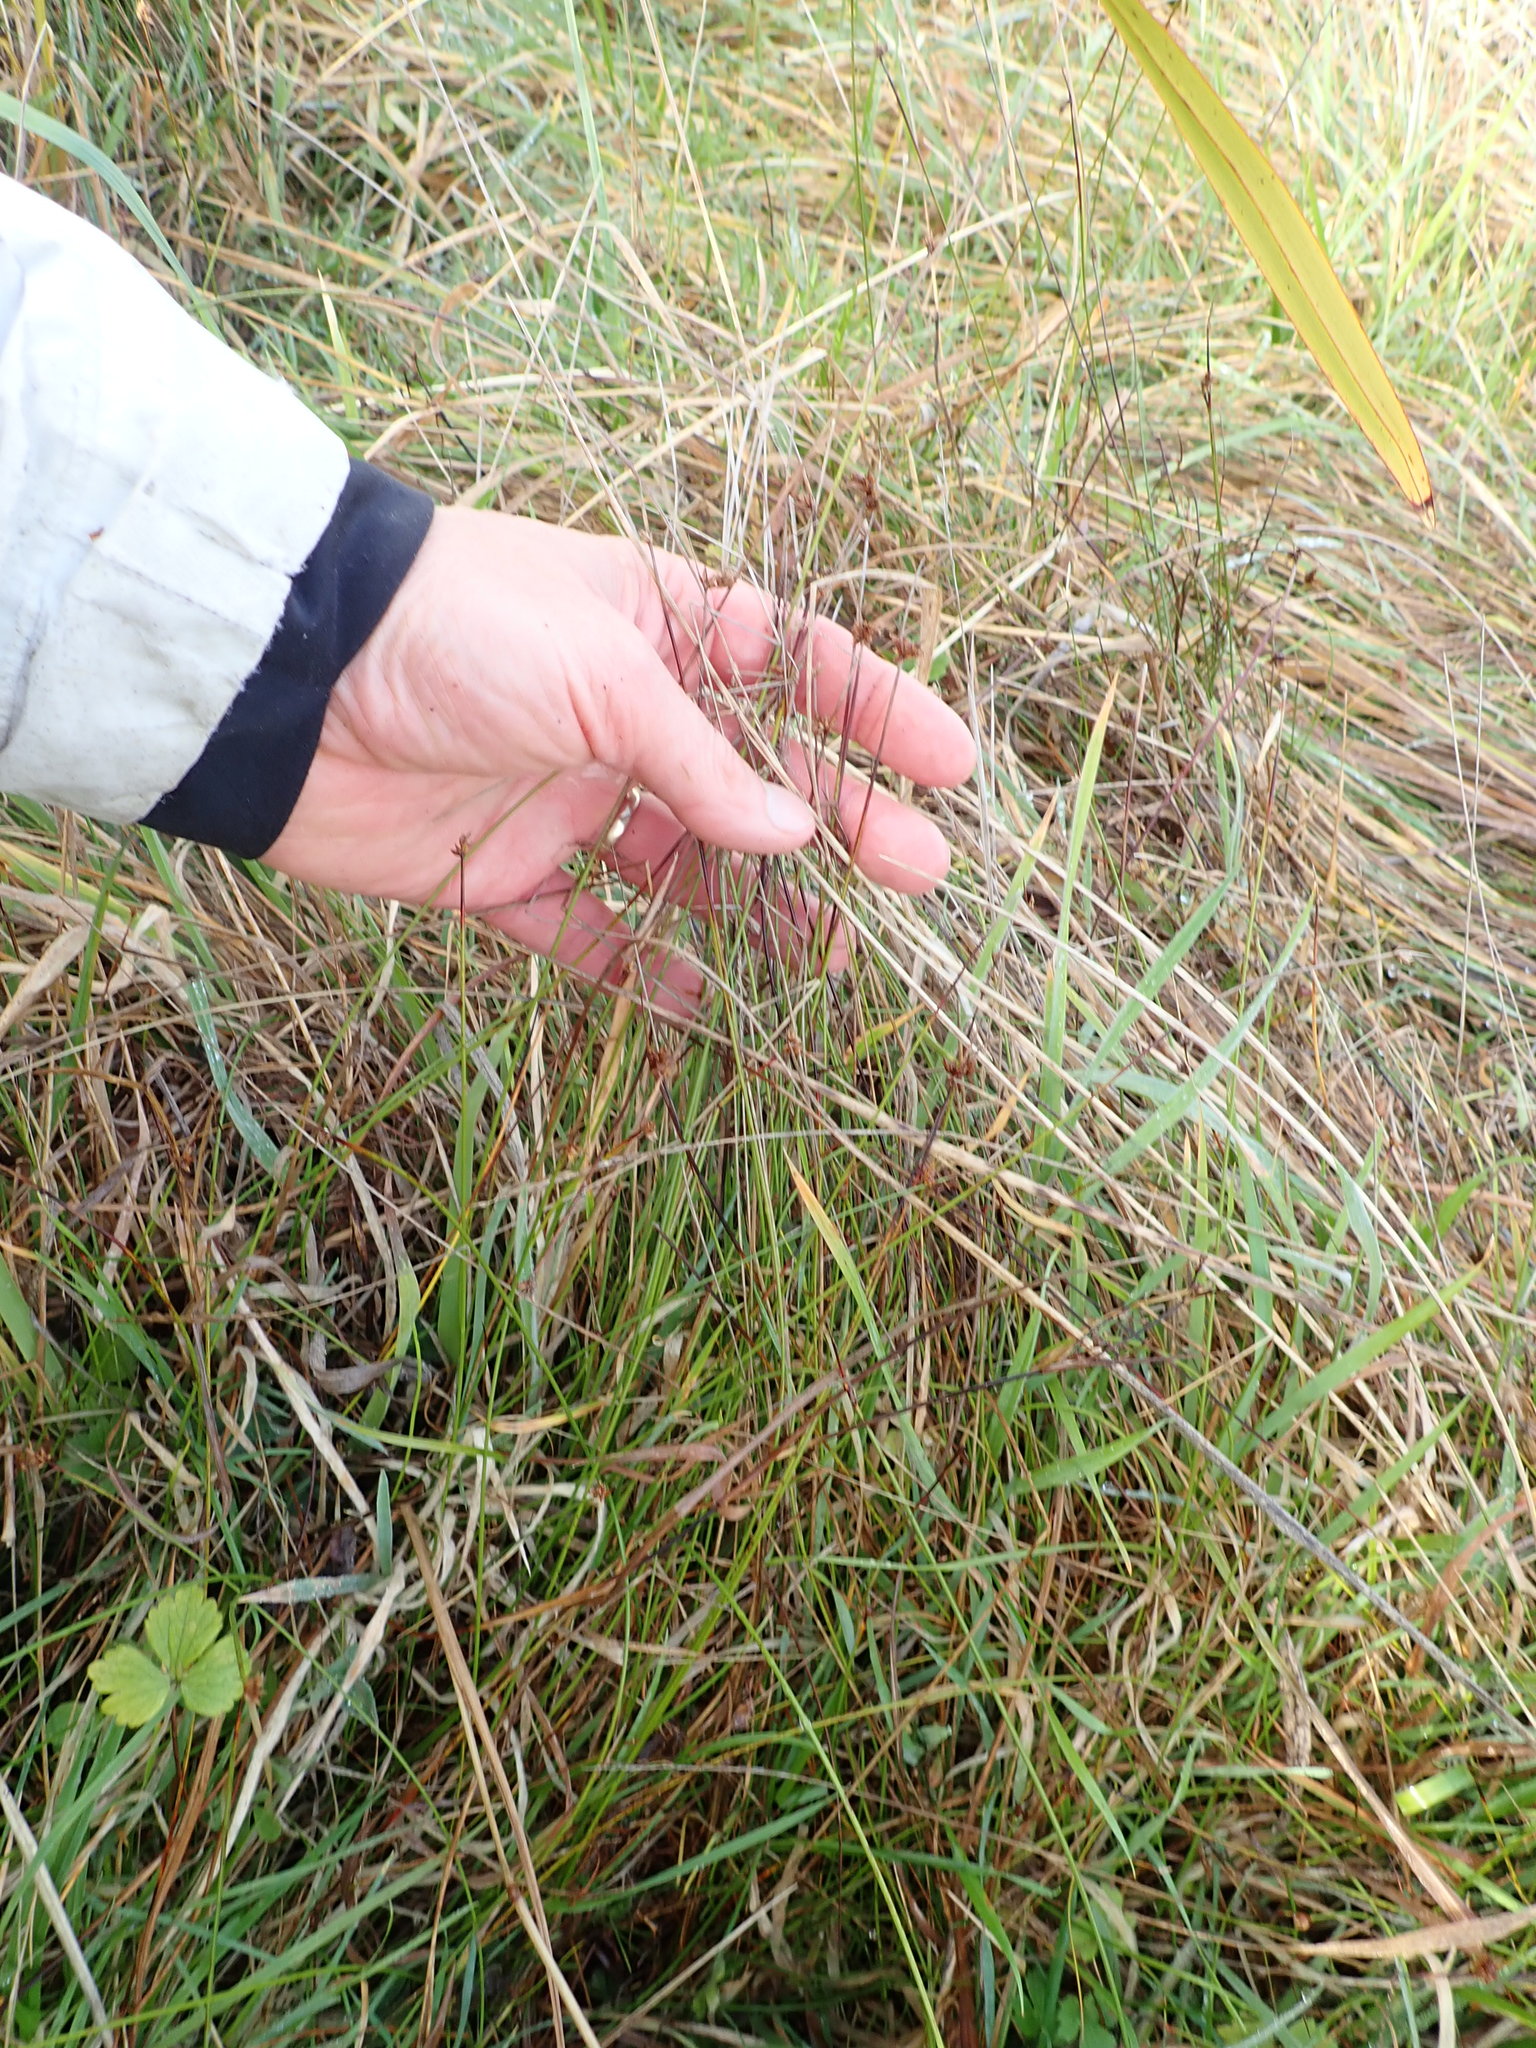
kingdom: Plantae
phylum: Tracheophyta
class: Liliopsida
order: Poales
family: Cyperaceae
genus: Schoenus
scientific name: Schoenus nitens
